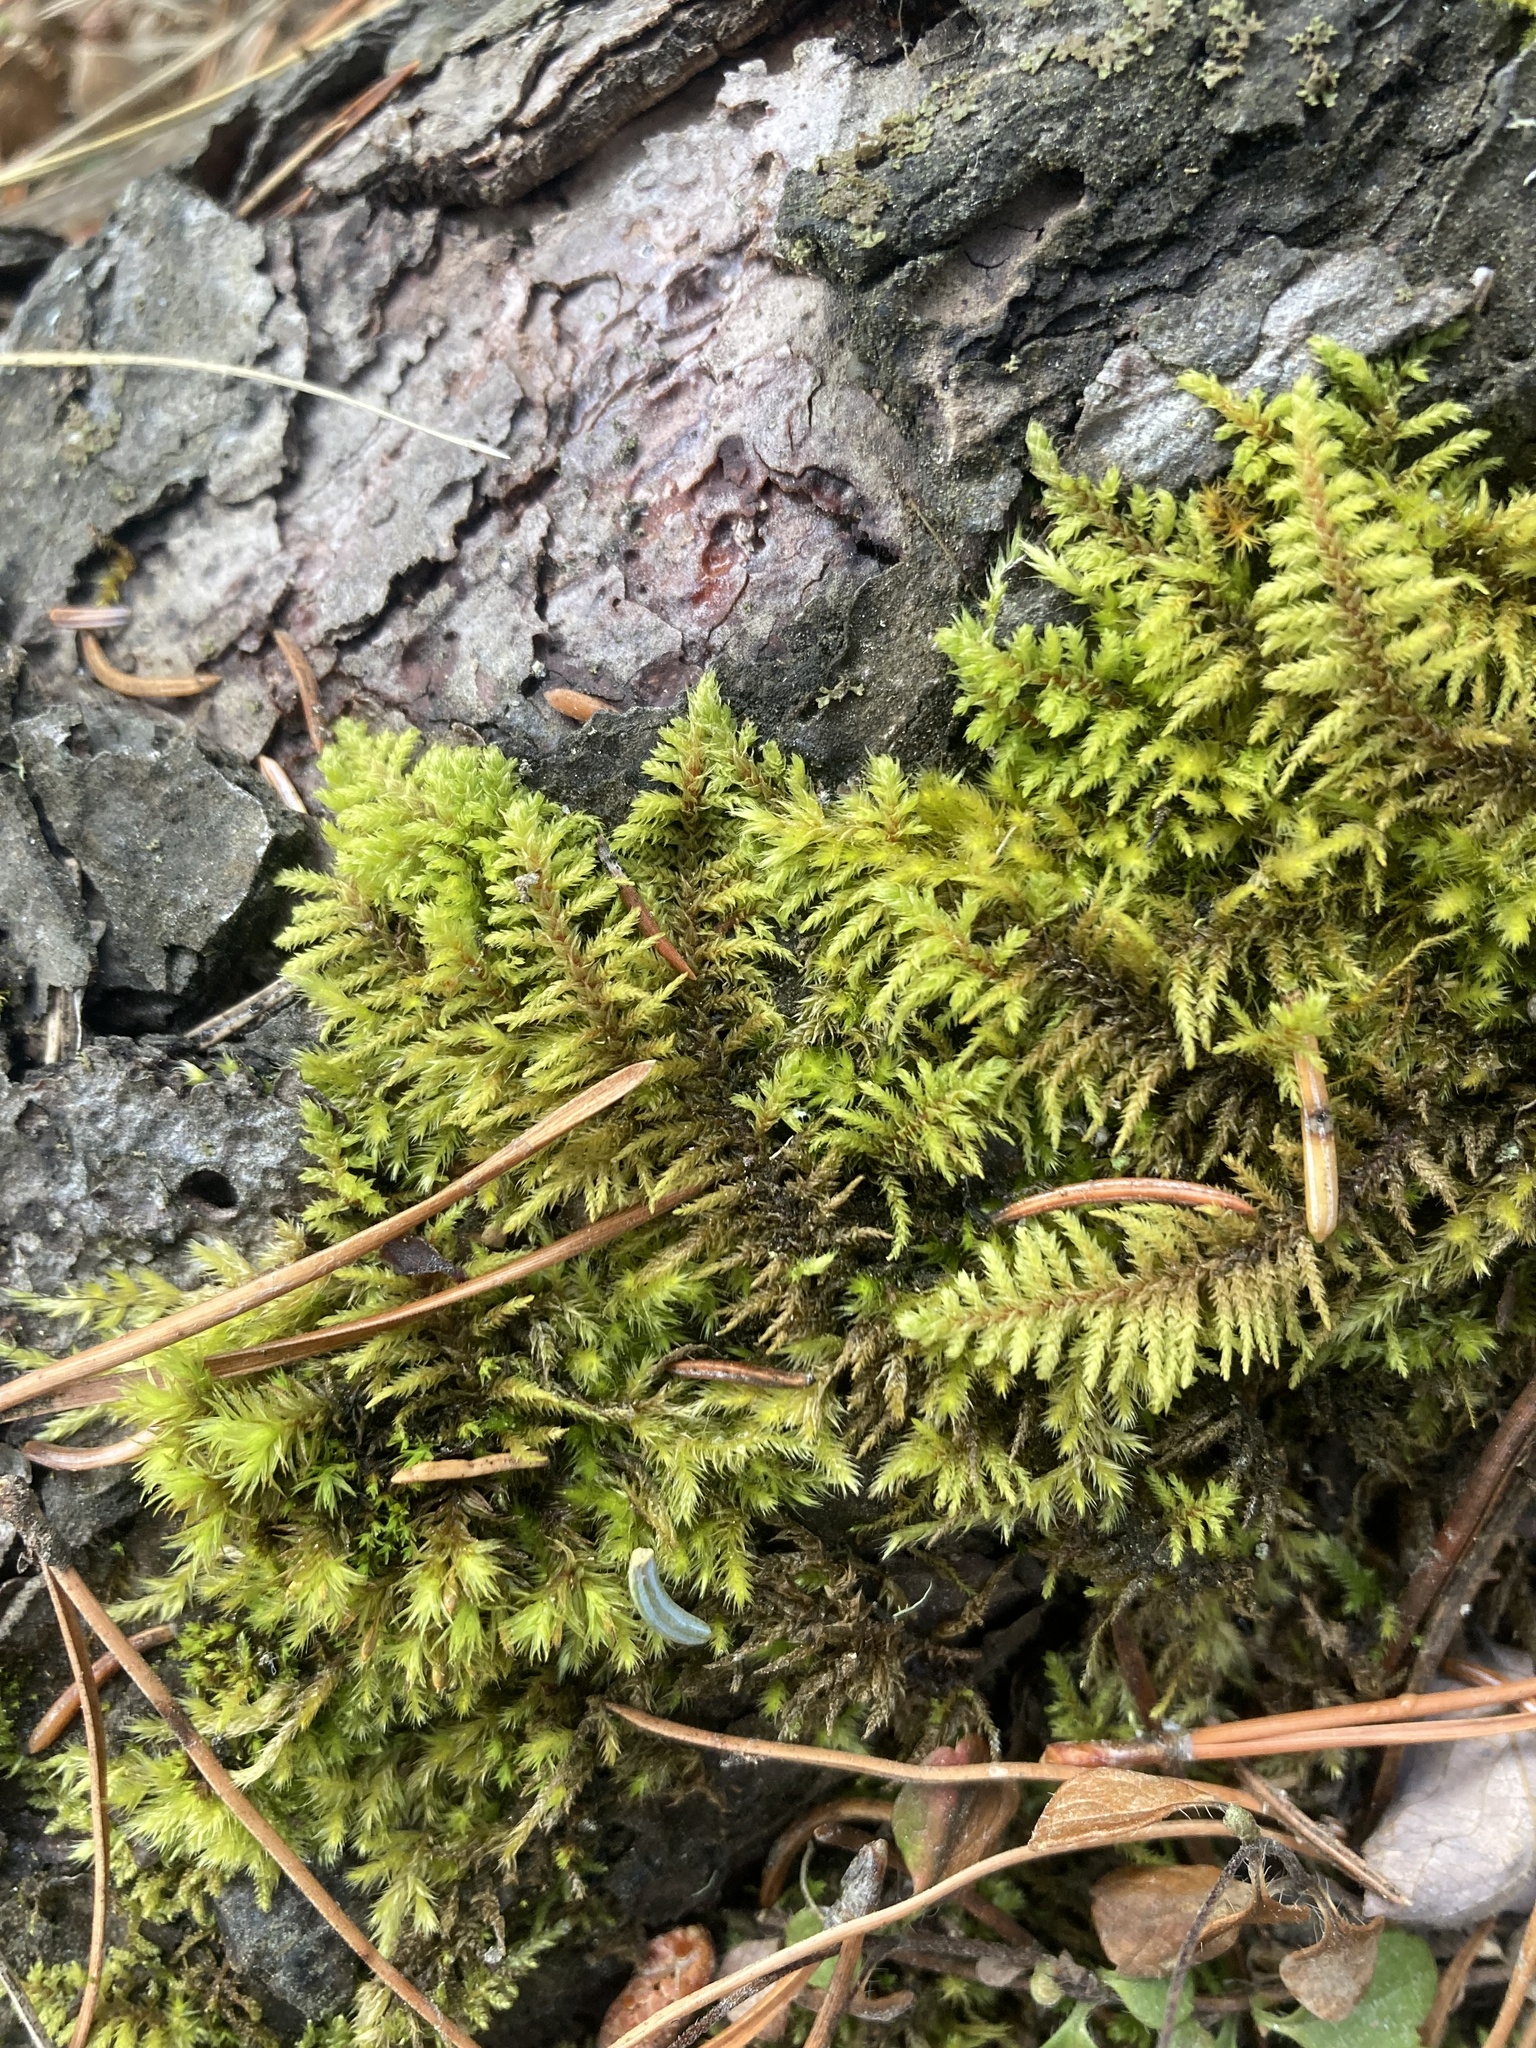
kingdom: Plantae
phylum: Bryophyta
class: Bryopsida
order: Hypnales
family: Thuidiaceae
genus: Abietinella
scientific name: Abietinella abietina
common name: Wiry fern moss
